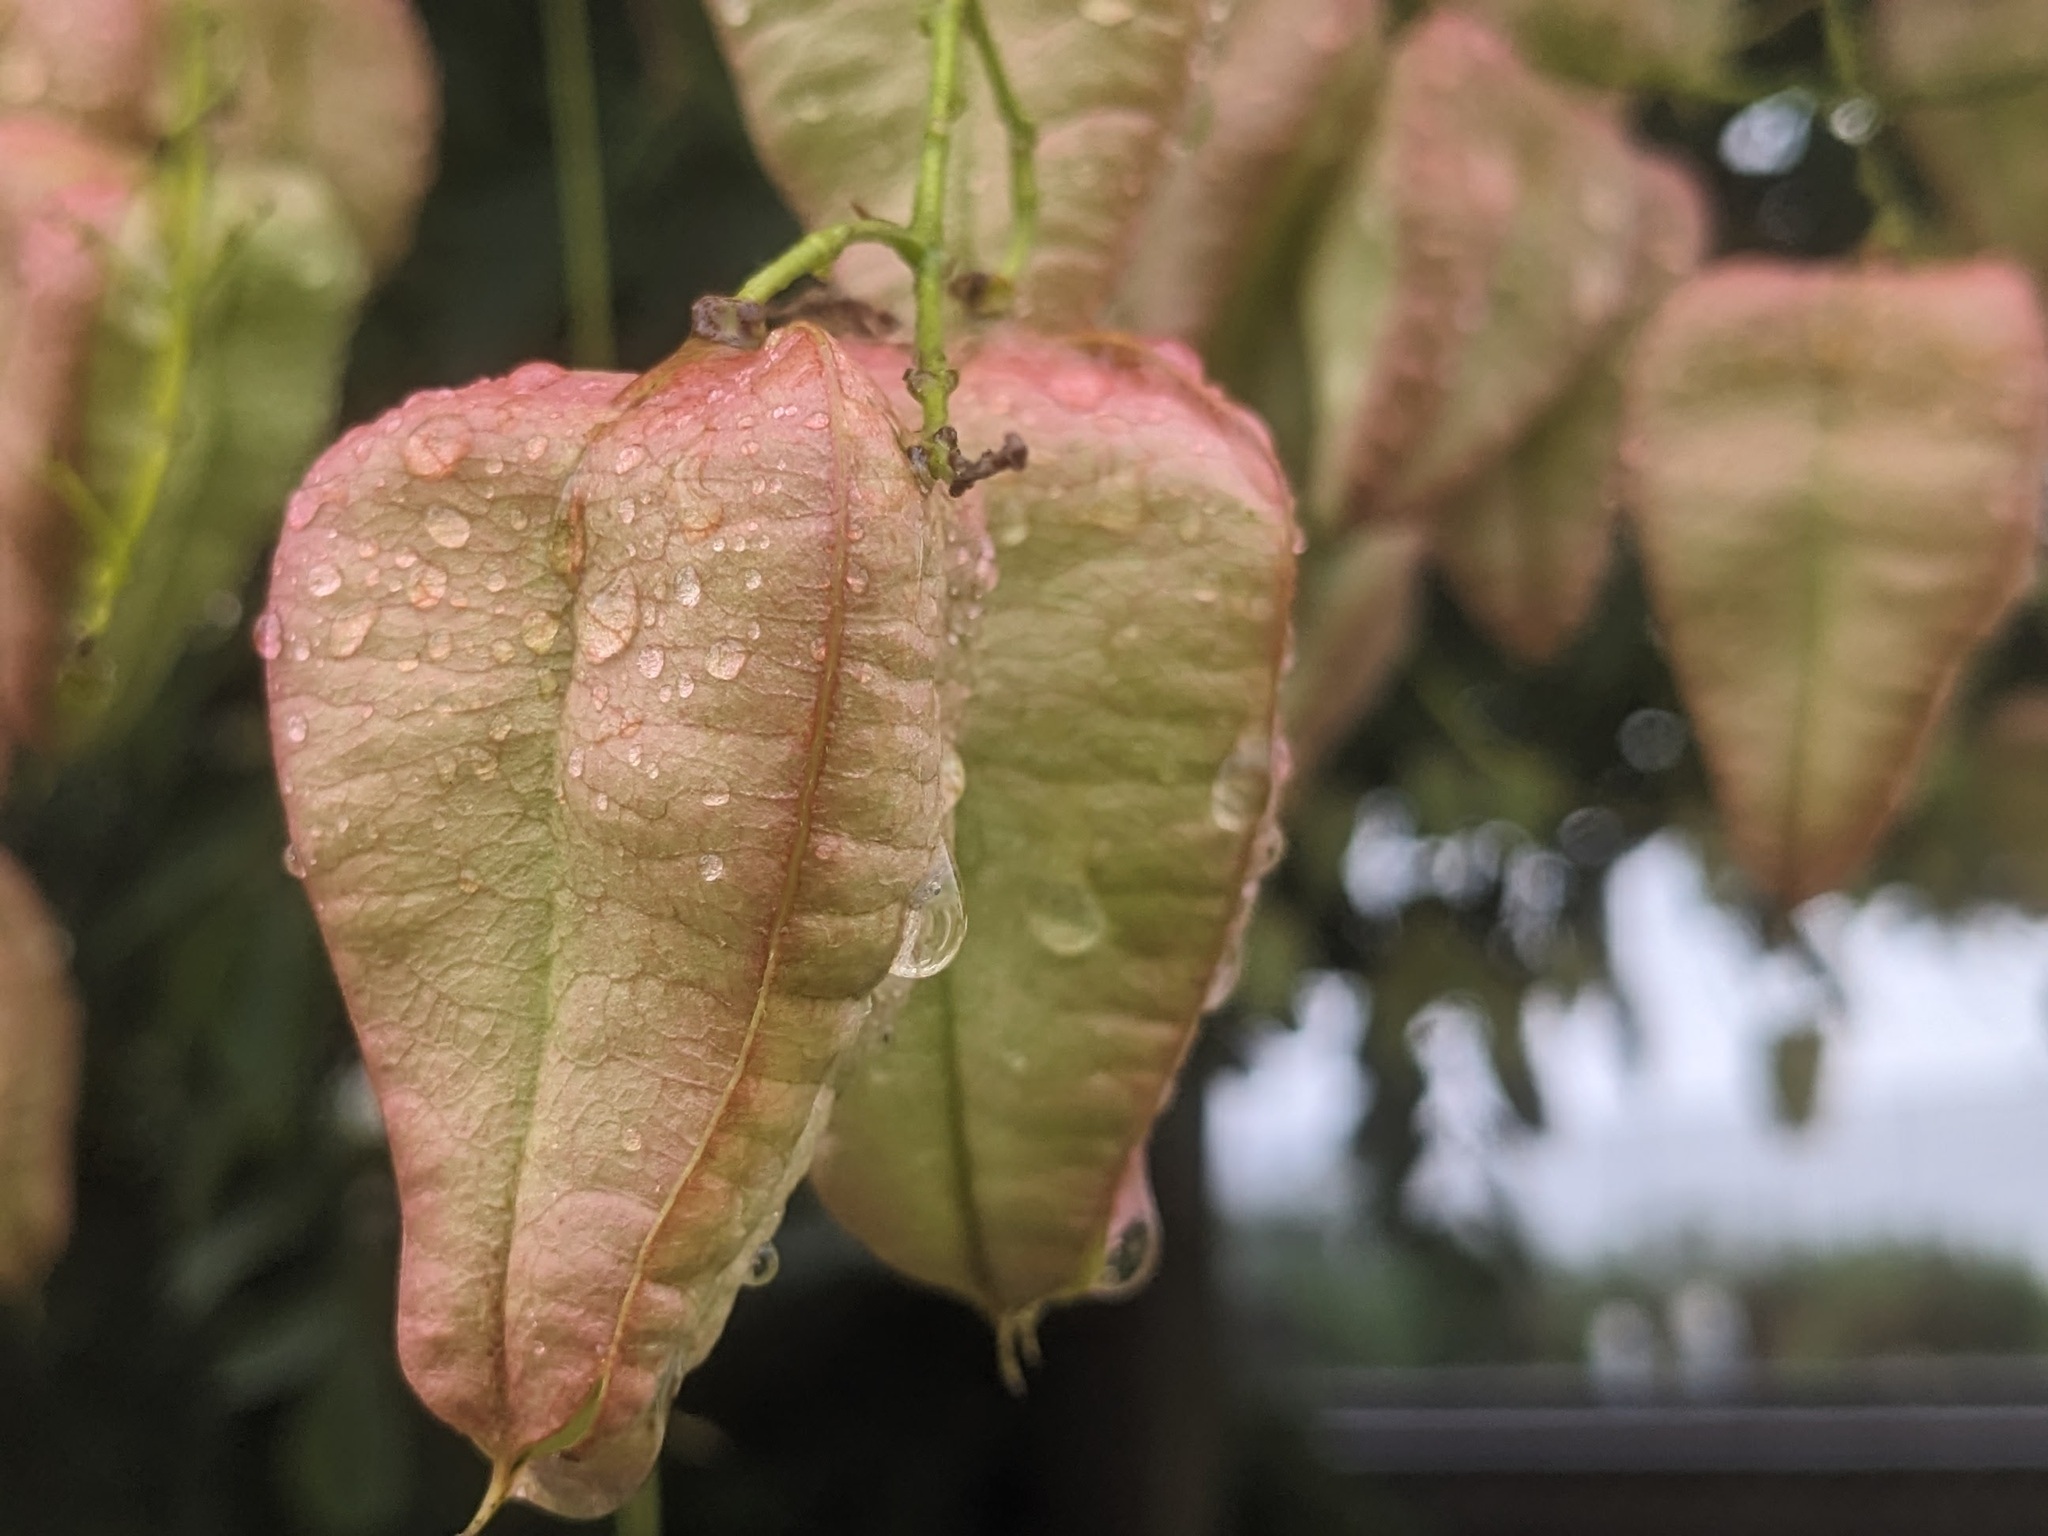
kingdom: Plantae
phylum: Tracheophyta
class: Magnoliopsida
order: Sapindales
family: Sapindaceae
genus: Koelreuteria
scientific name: Koelreuteria paniculata
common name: Pride-of-india
